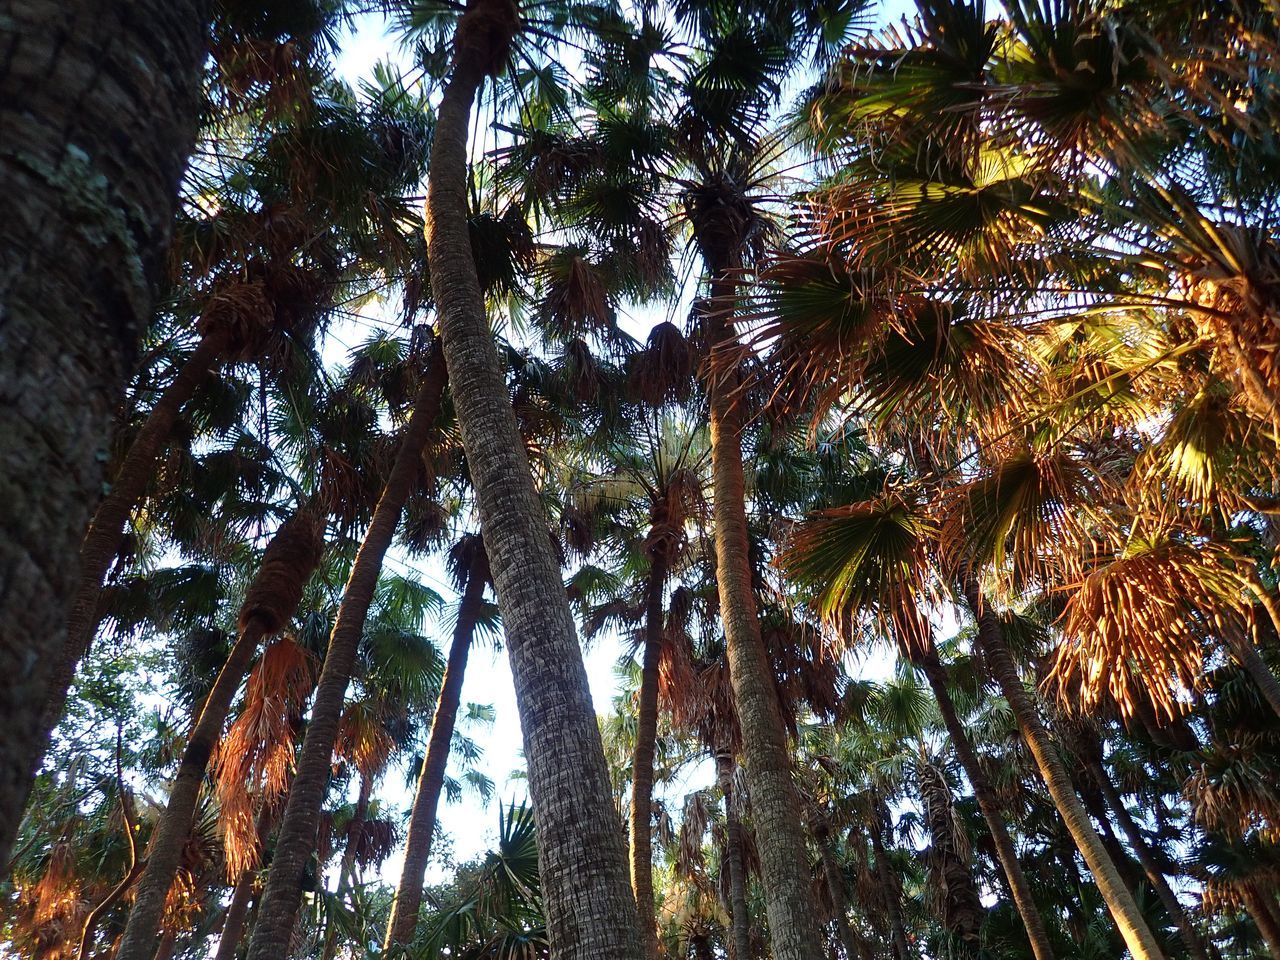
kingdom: Plantae
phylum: Tracheophyta
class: Liliopsida
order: Arecales
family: Arecaceae
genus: Livistona
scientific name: Livistona australis
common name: Cabbage fan palm
